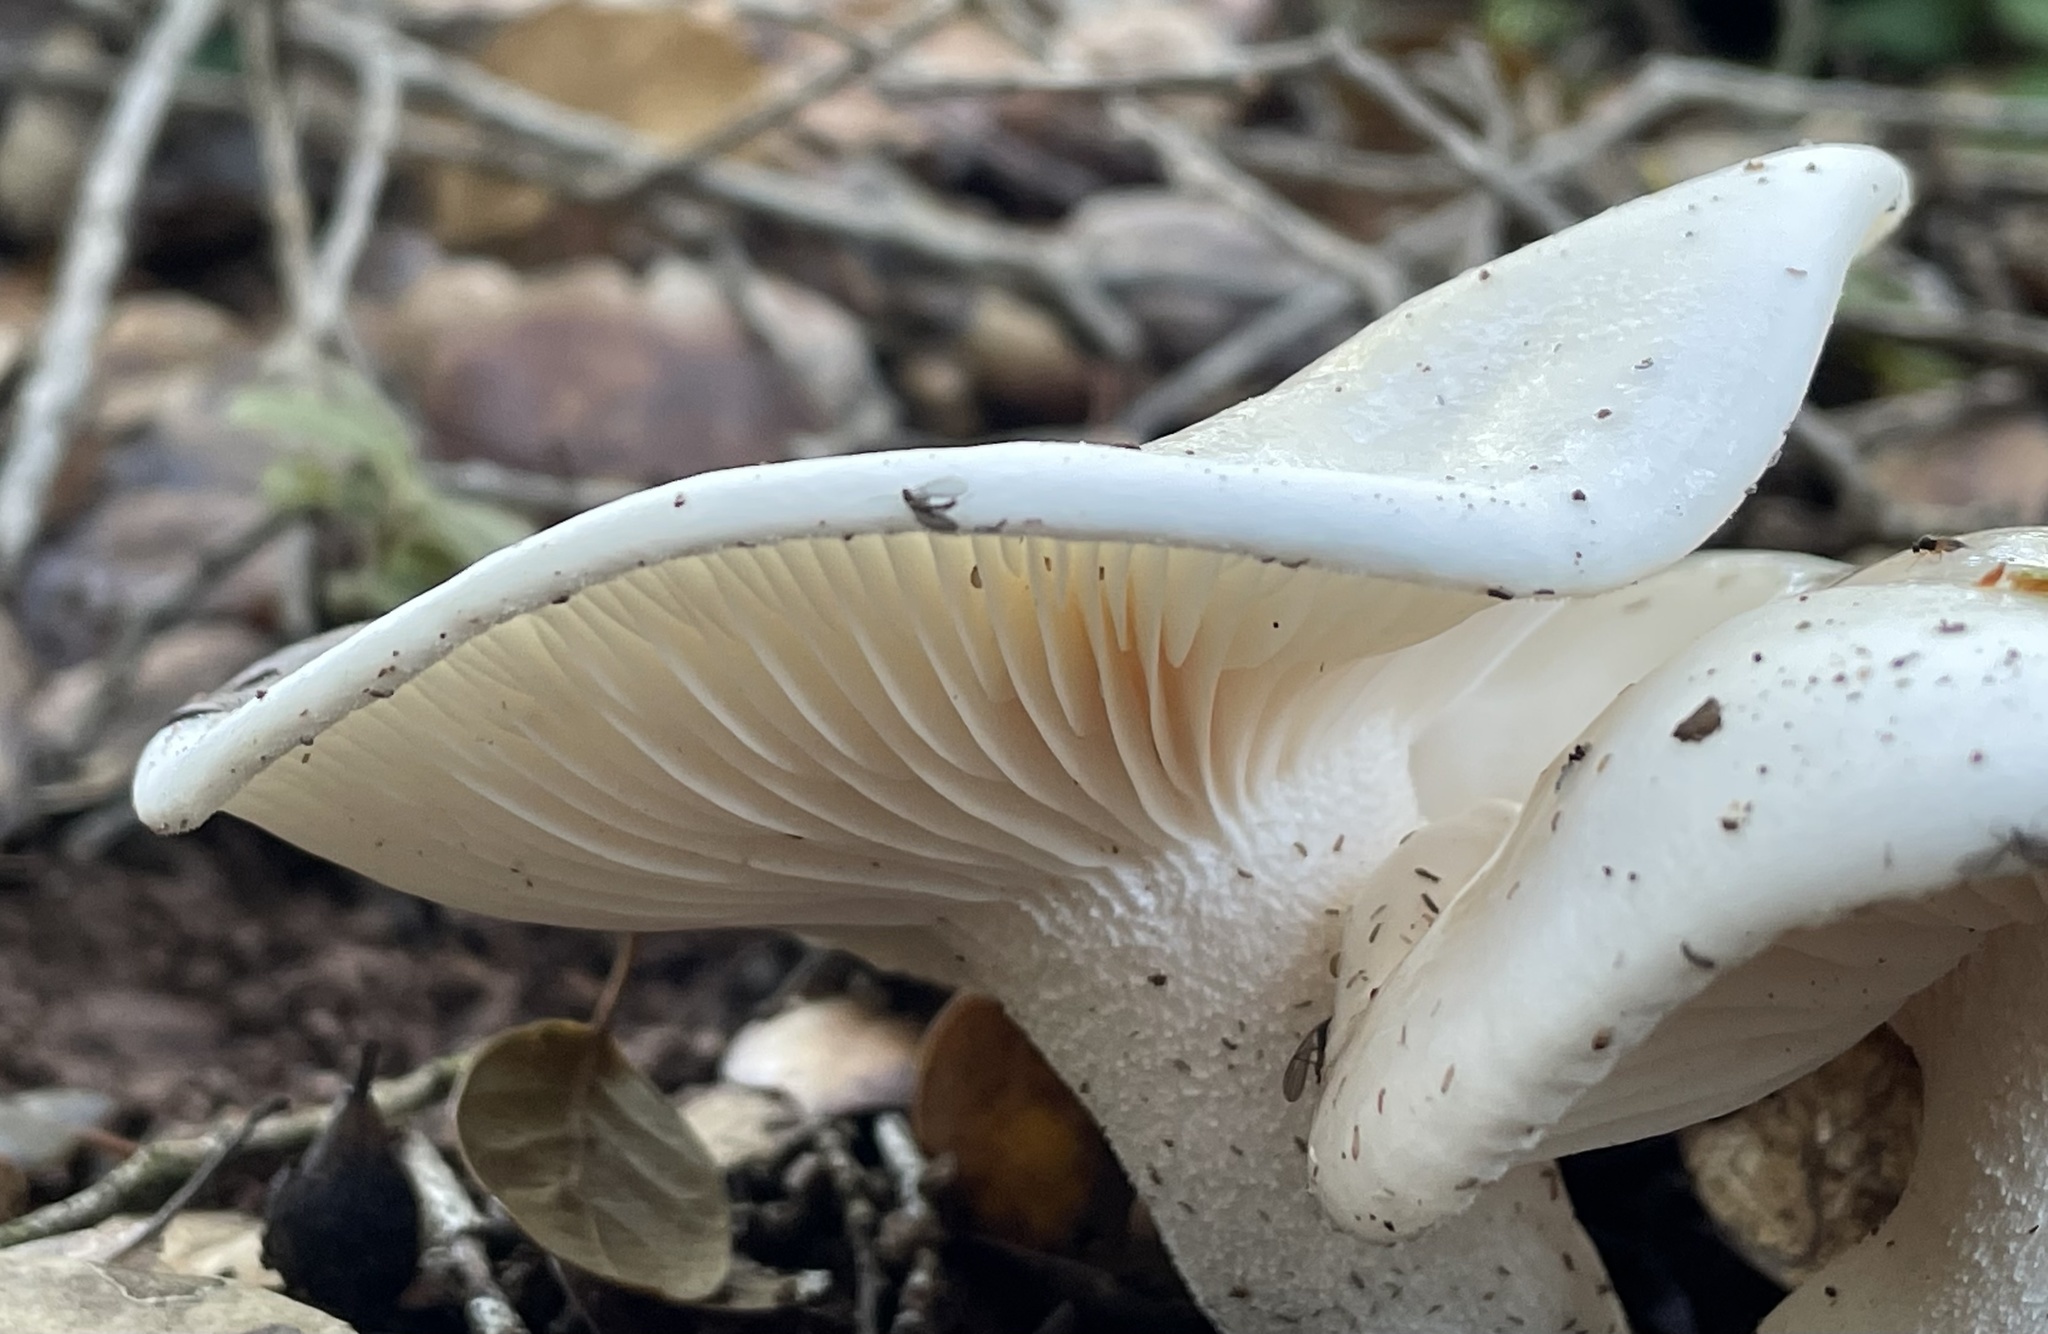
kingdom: Fungi
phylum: Basidiomycota
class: Agaricomycetes
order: Agaricales
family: Hygrophoraceae
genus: Hygrophorus
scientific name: Hygrophorus eburneus
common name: Ivory wax-cap
